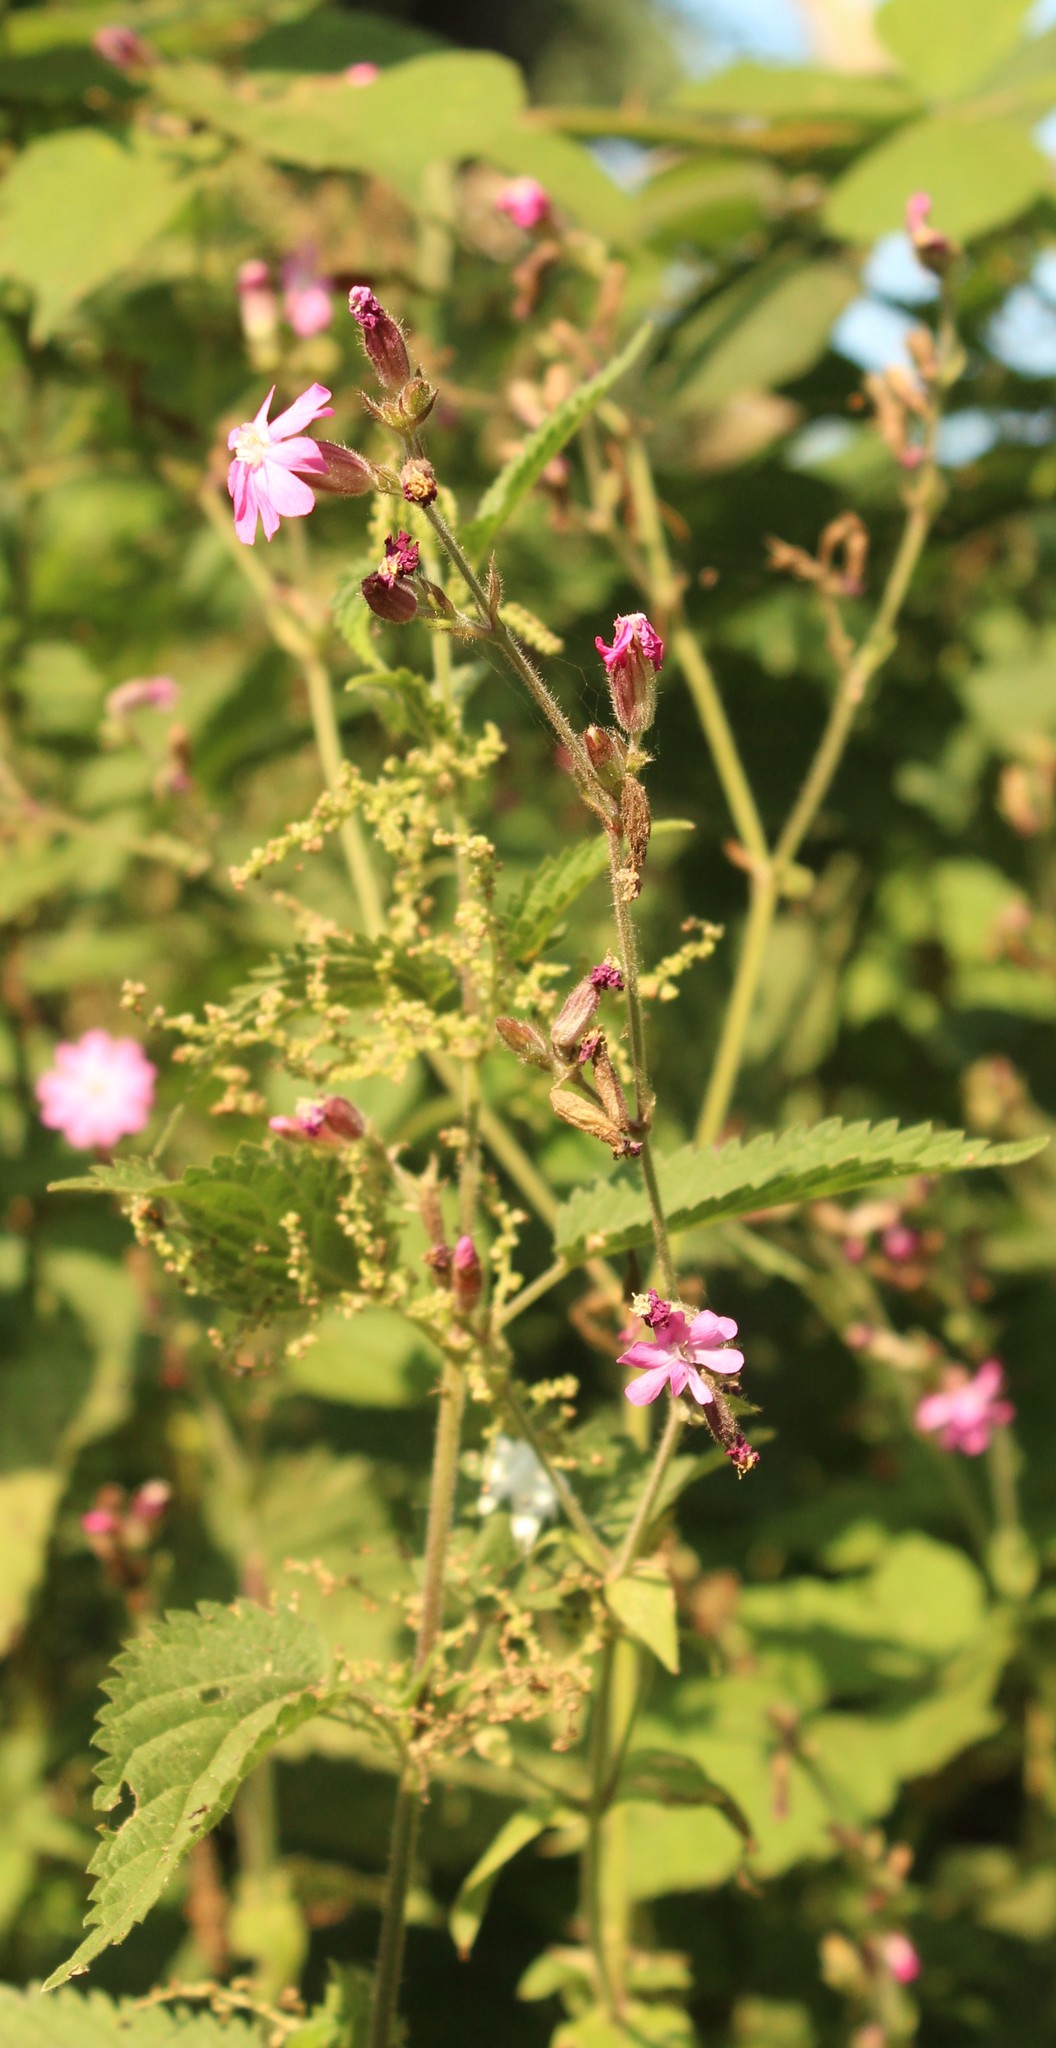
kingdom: Plantae
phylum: Tracheophyta
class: Magnoliopsida
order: Caryophyllales
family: Caryophyllaceae
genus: Silene
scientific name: Silene dioica
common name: Red campion
